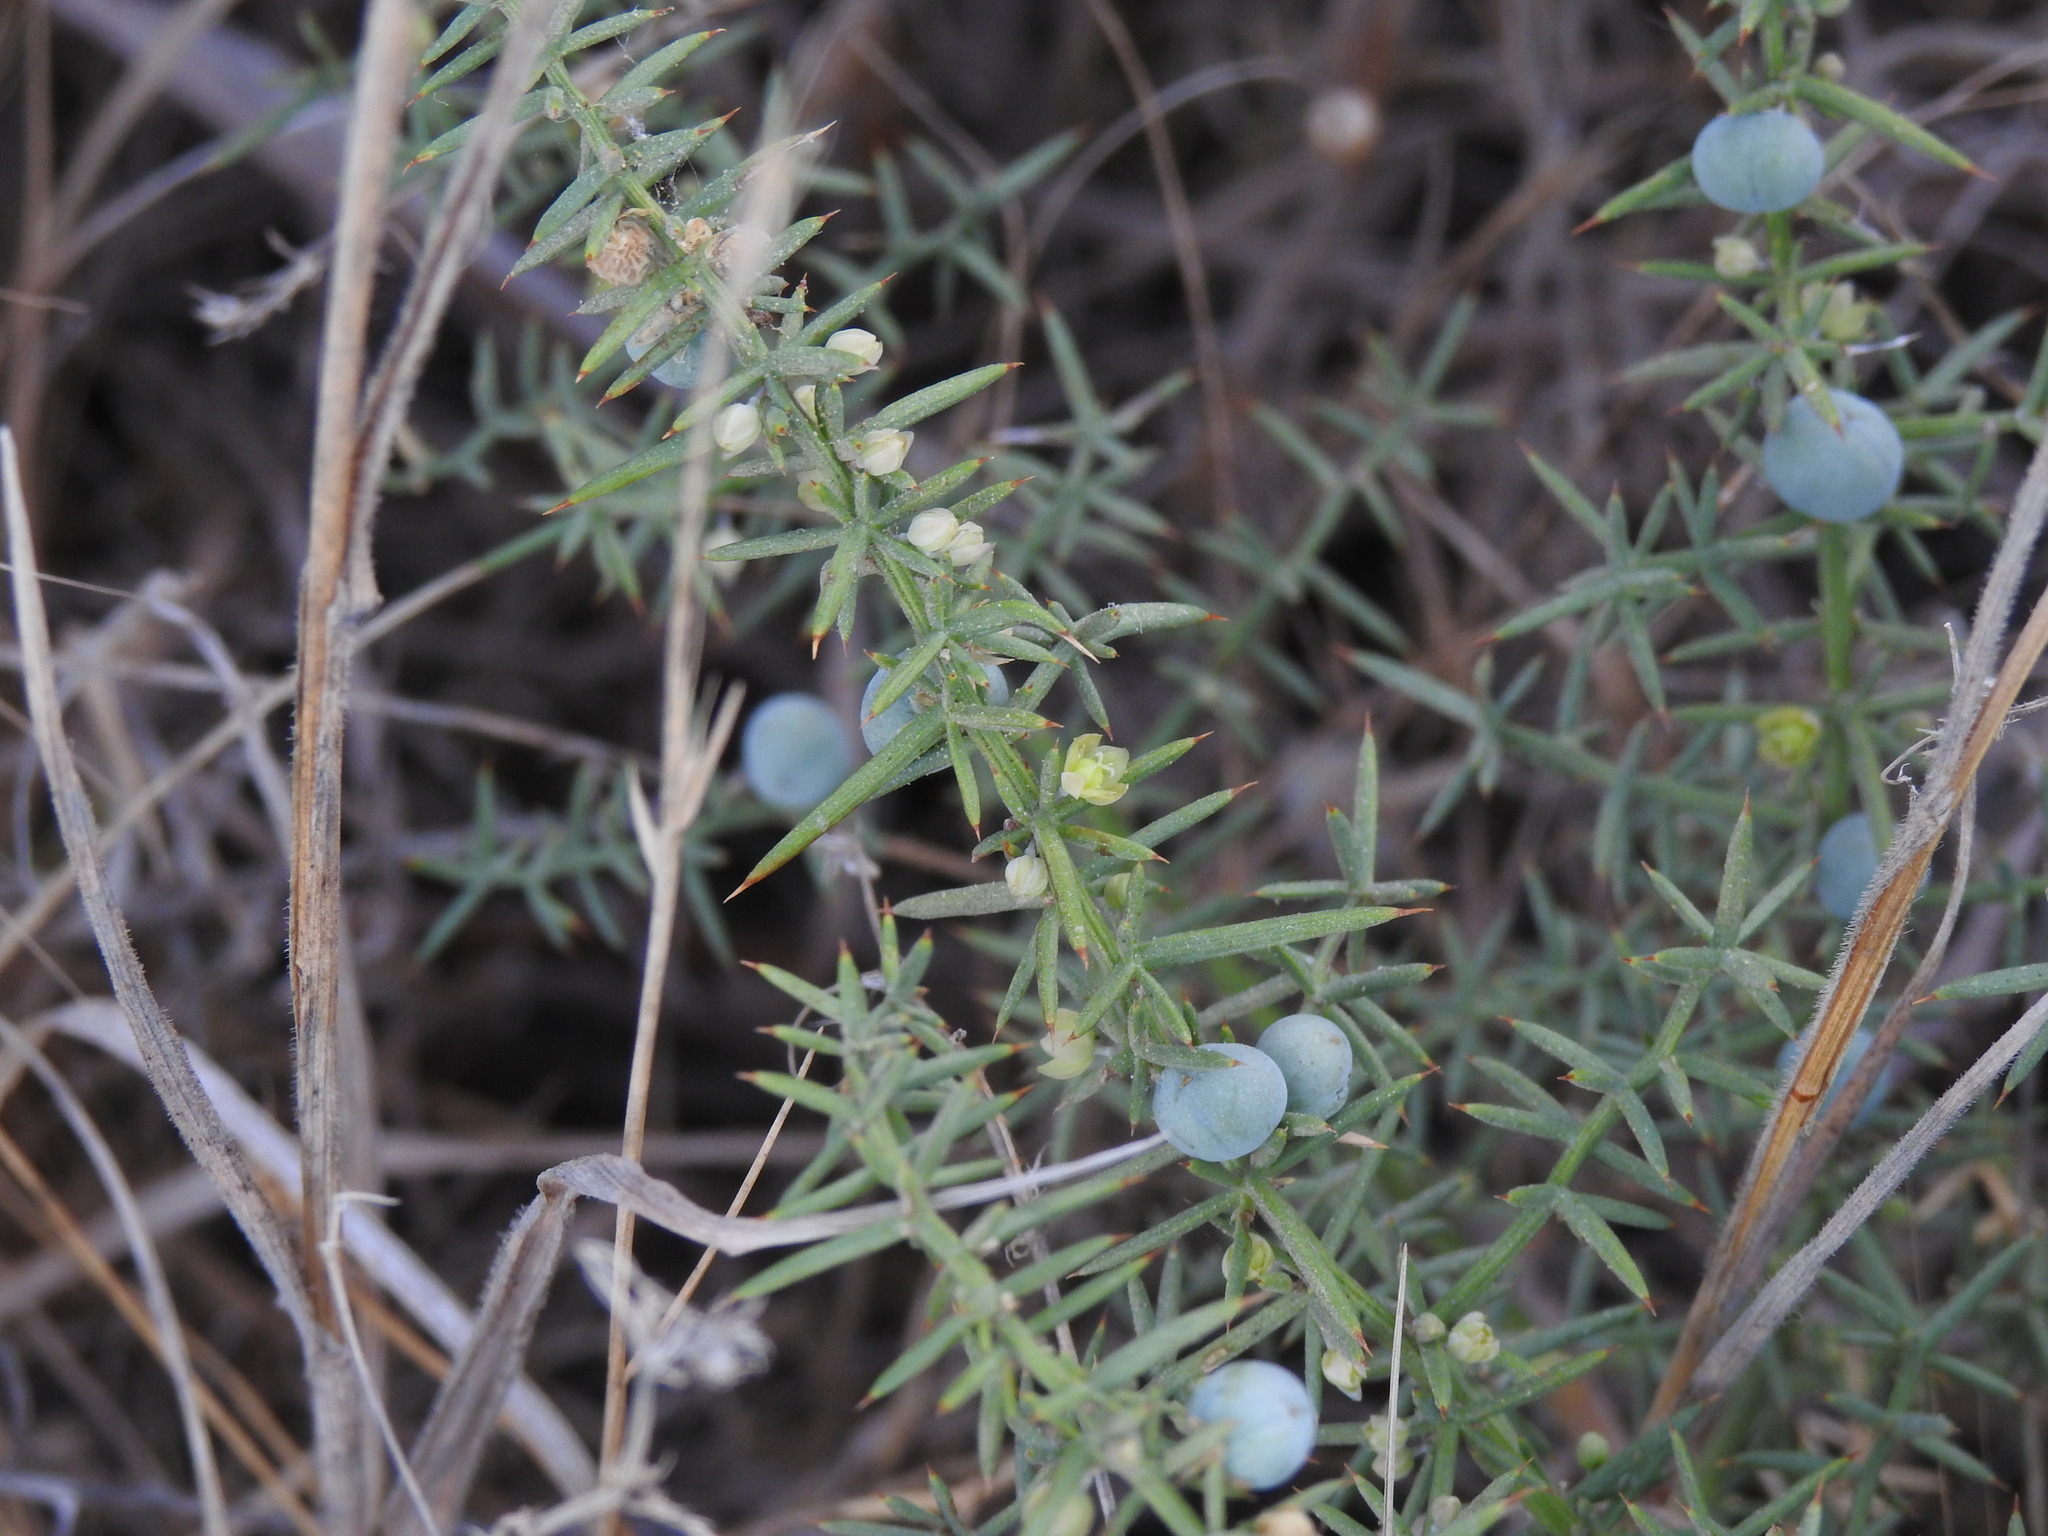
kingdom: Plantae
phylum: Tracheophyta
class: Liliopsida
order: Asparagales
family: Asparagaceae
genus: Asparagus
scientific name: Asparagus aphyllus
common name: Mediterranean asparagus
